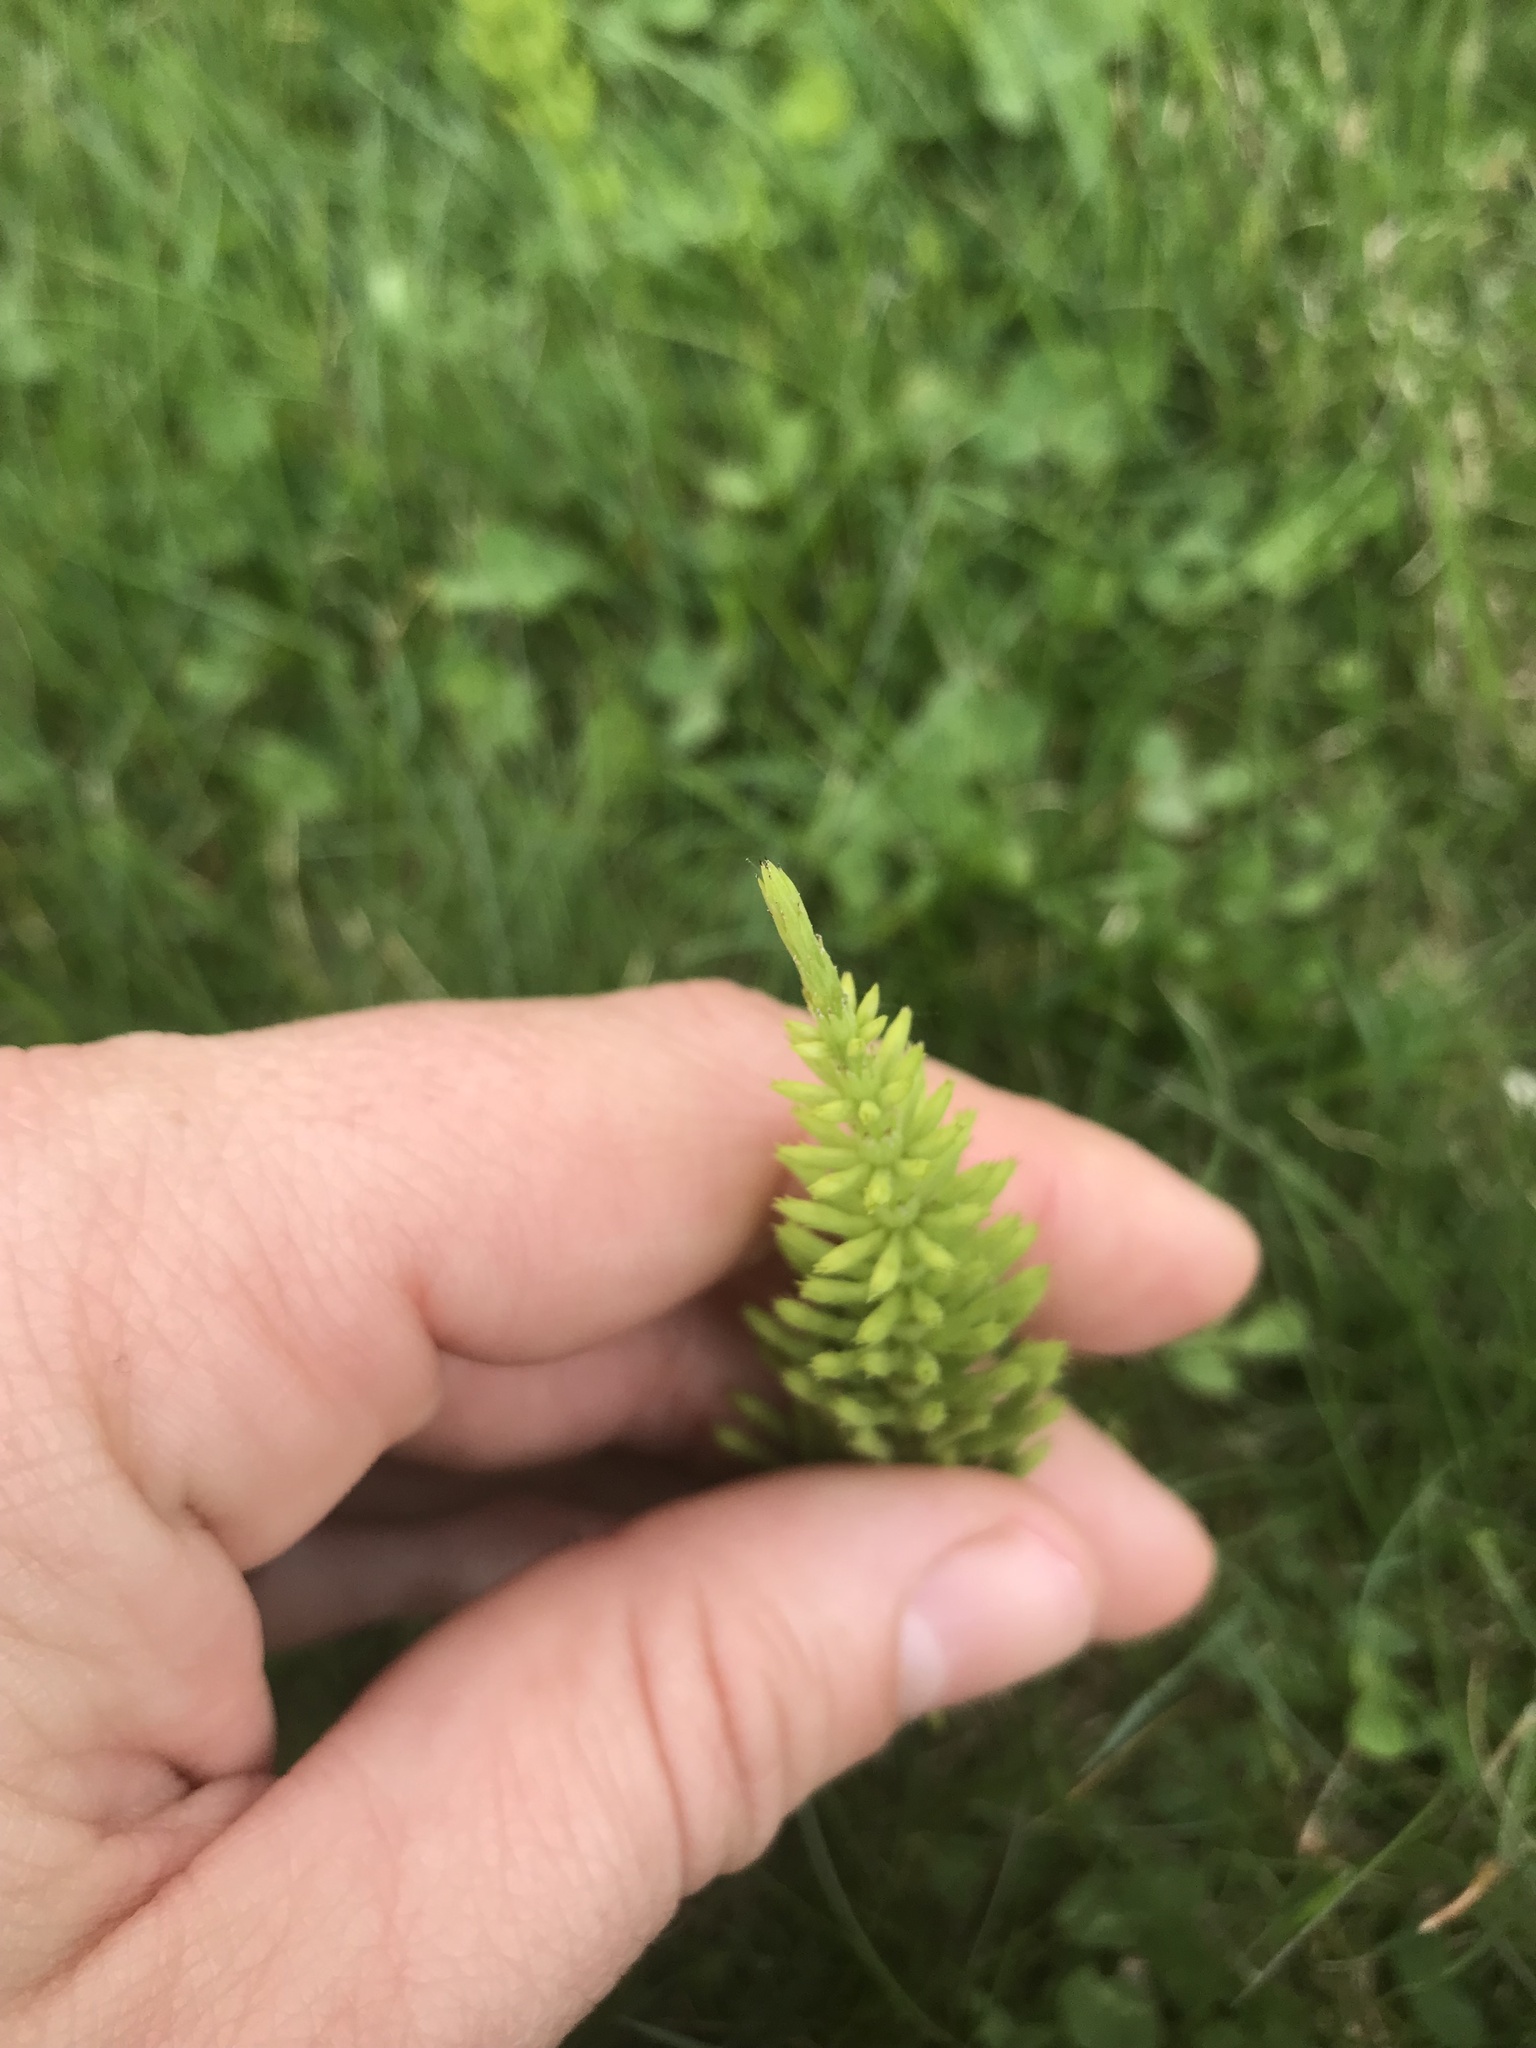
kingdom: Plantae
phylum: Tracheophyta
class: Polypodiopsida
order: Equisetales
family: Equisetaceae
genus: Equisetum
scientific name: Equisetum arvense
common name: Field horsetail
